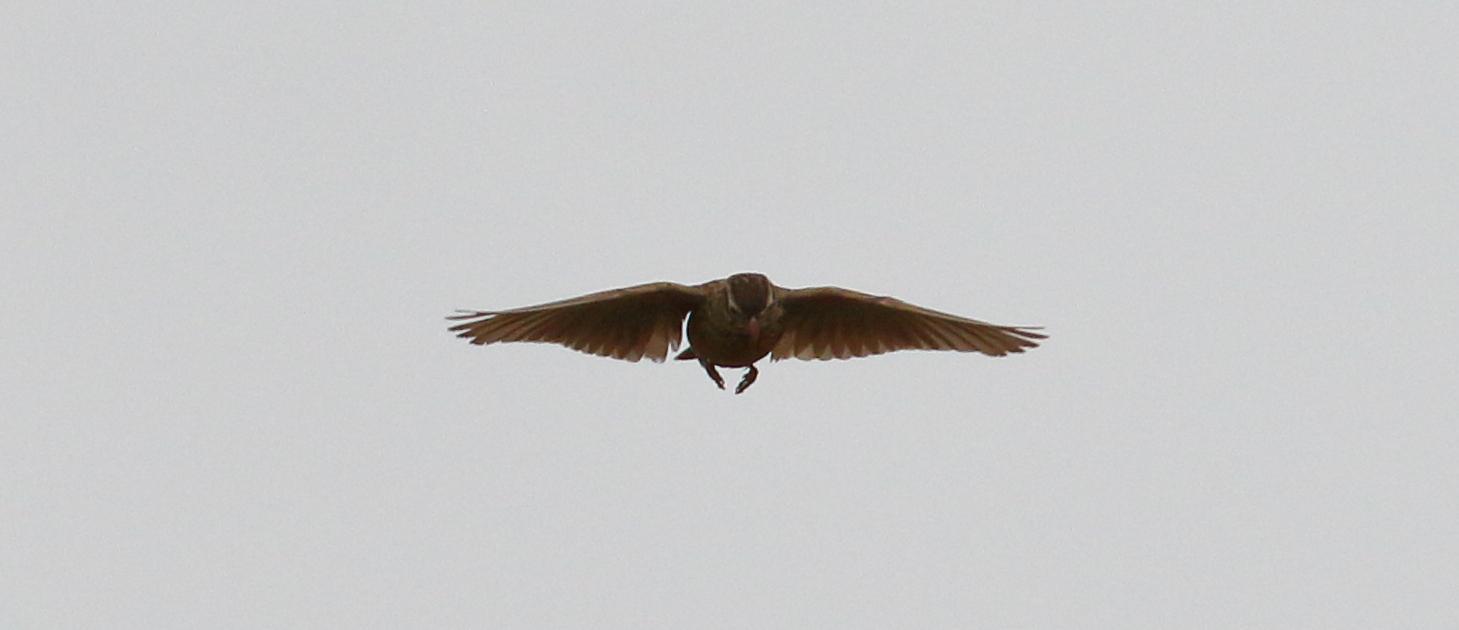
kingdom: Animalia
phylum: Chordata
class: Aves
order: Passeriformes
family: Alaudidae
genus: Spizocorys
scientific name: Spizocorys conirostris
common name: Pink-billed lark
